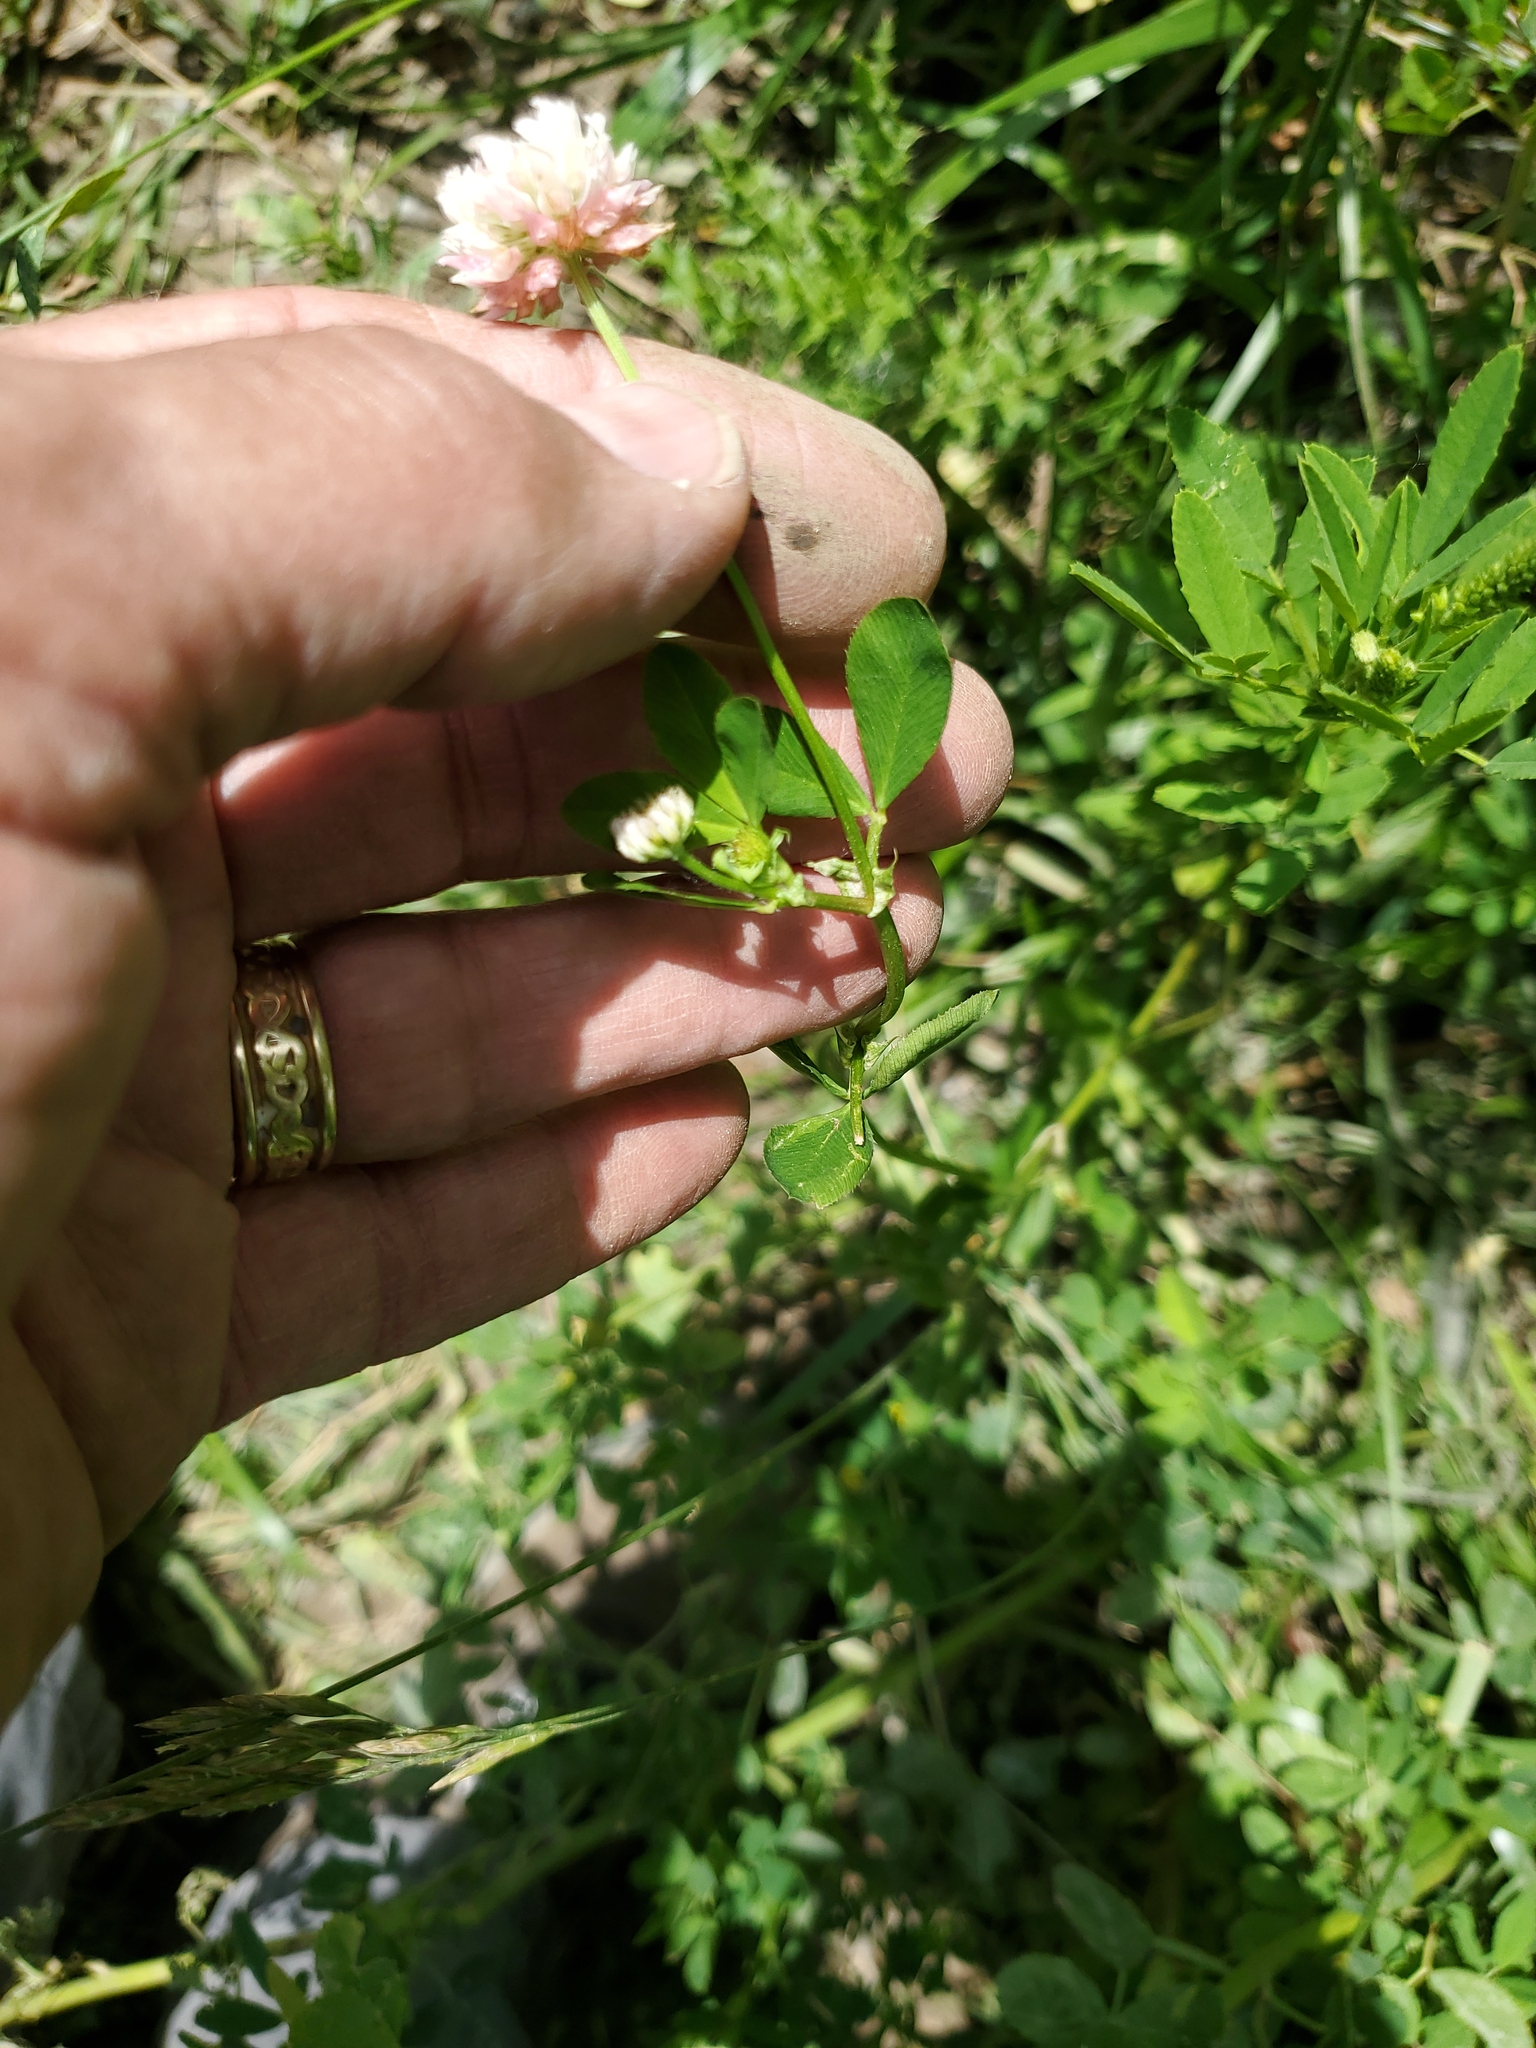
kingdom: Plantae
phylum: Tracheophyta
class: Magnoliopsida
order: Fabales
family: Fabaceae
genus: Trifolium
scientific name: Trifolium hybridum
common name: Alsike clover
